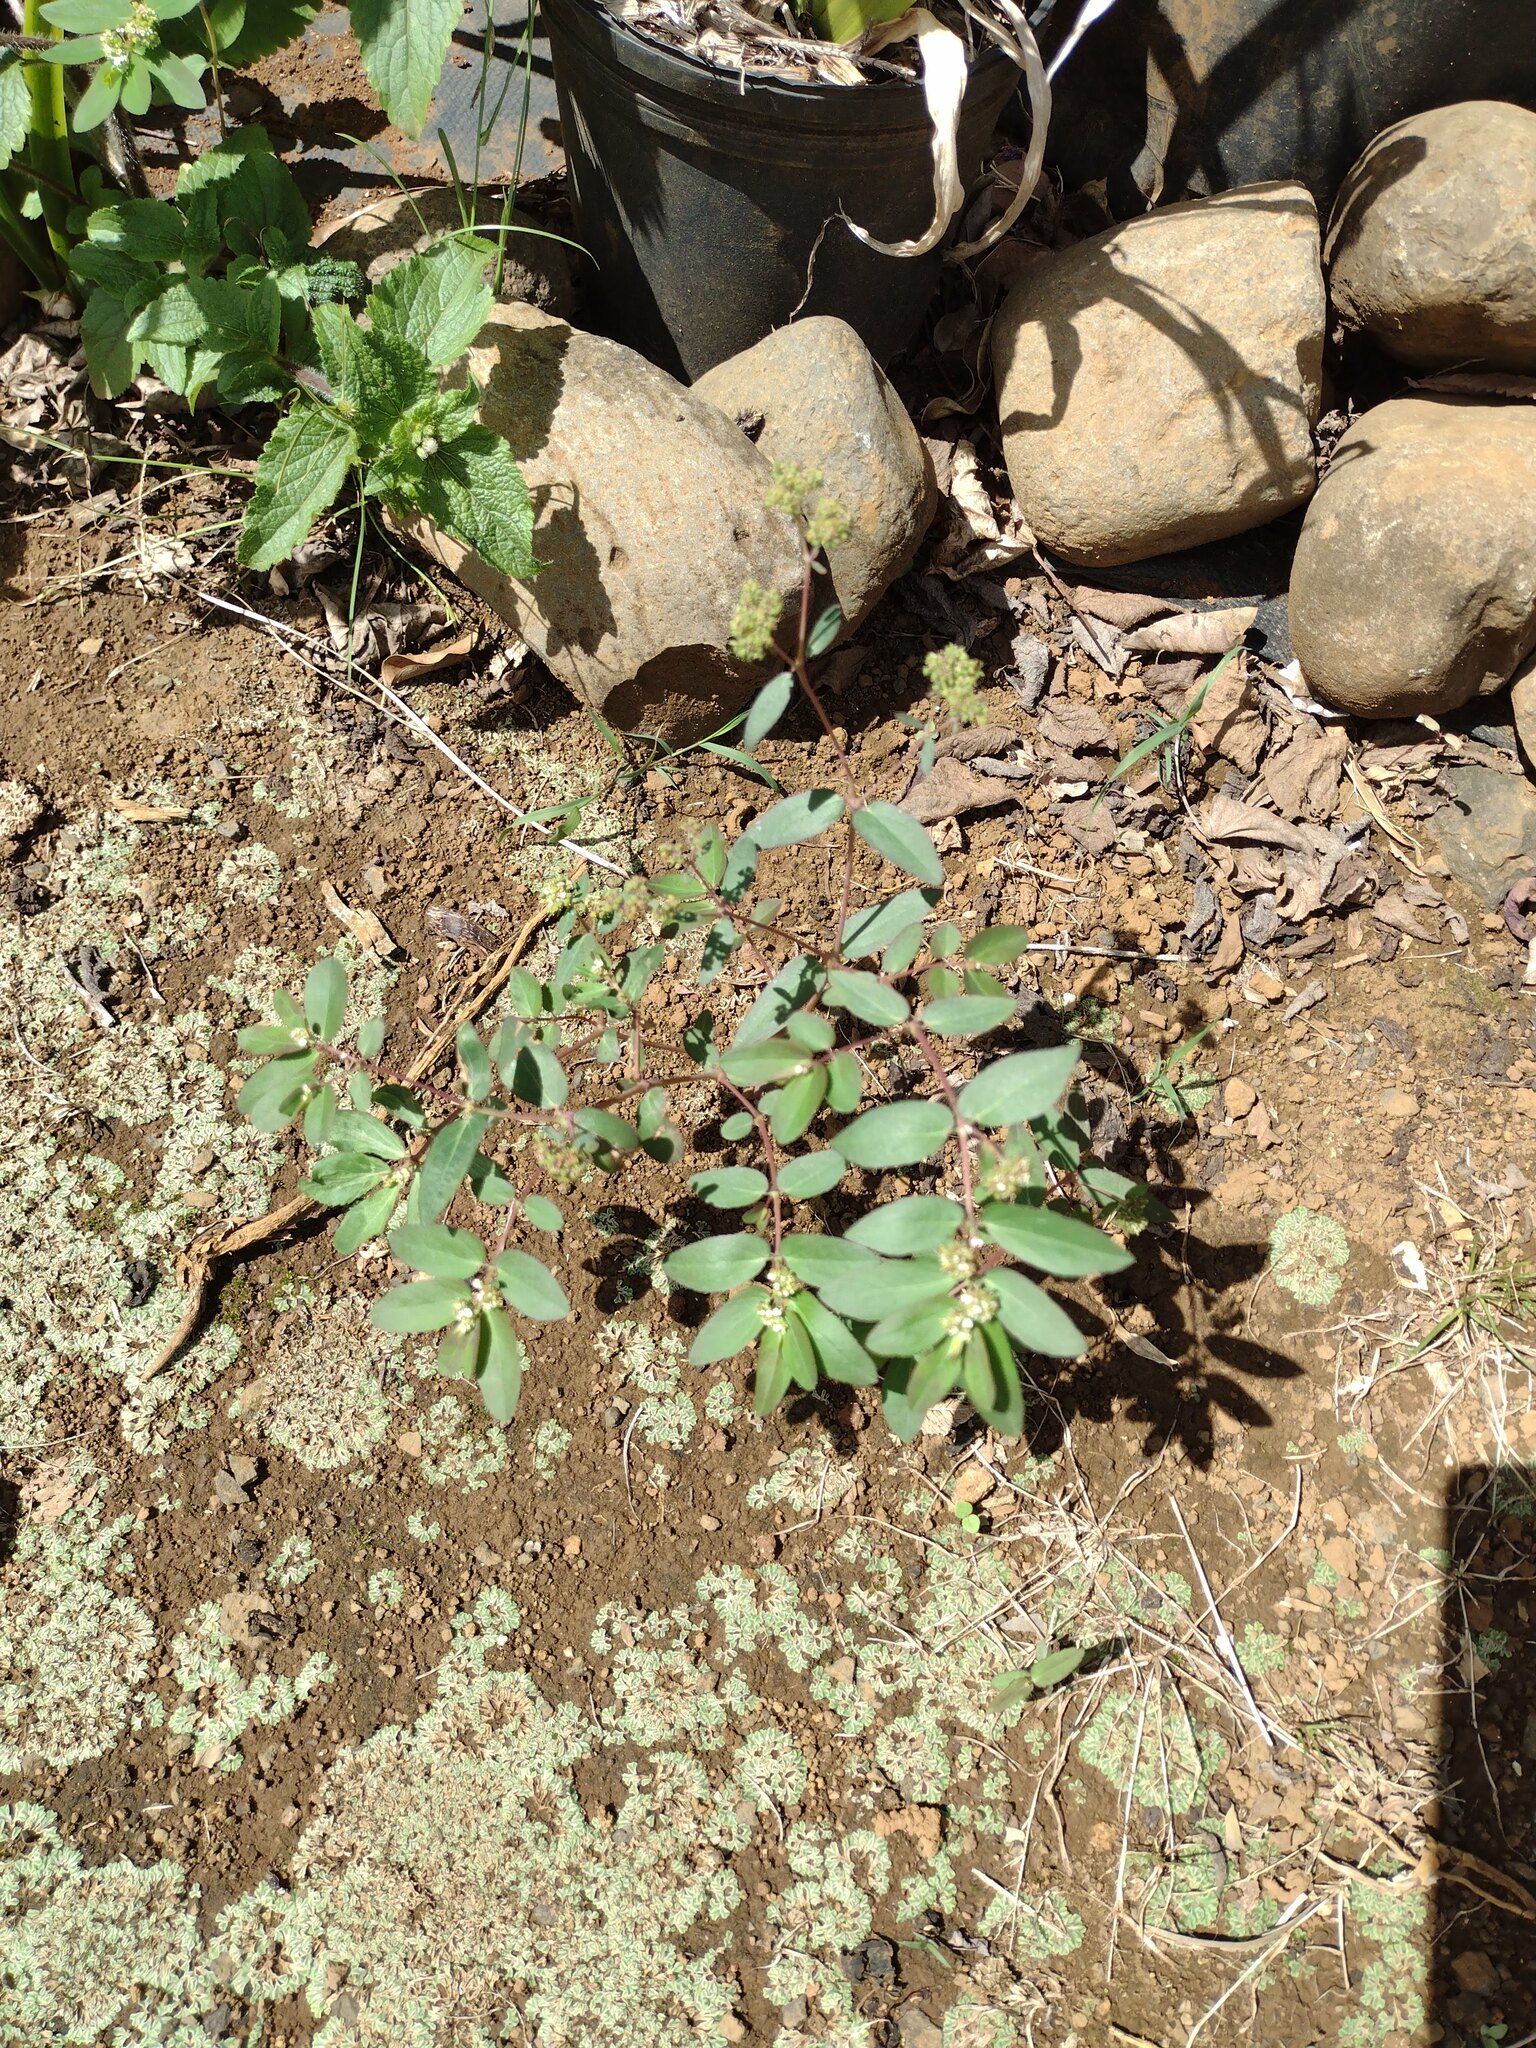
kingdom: Plantae
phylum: Tracheophyta
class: Magnoliopsida
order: Malpighiales
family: Euphorbiaceae
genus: Euphorbia
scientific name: Euphorbia hypericifolia
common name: Graceful sandmat
